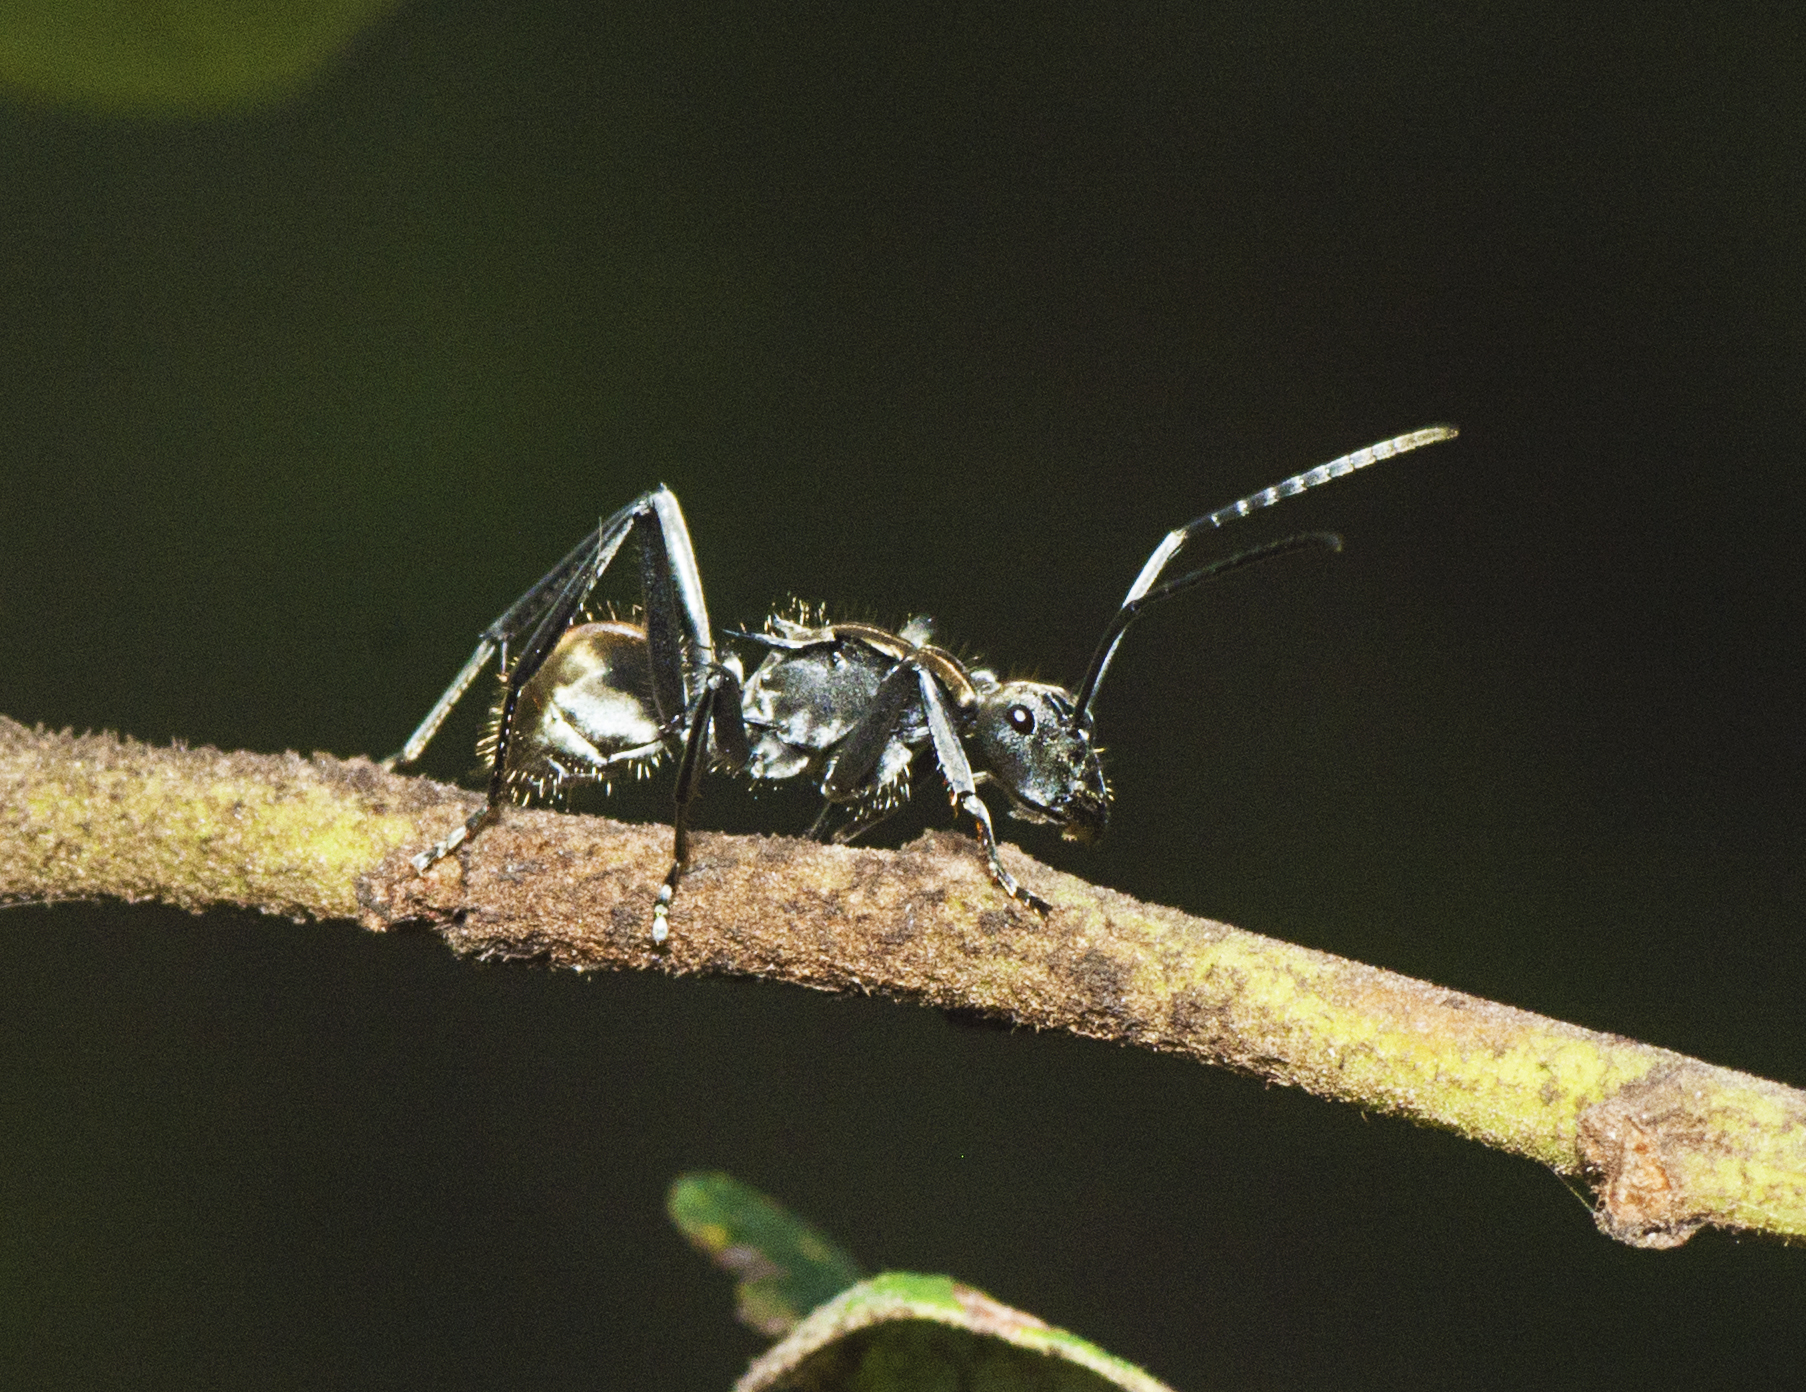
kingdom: Animalia
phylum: Arthropoda
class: Insecta
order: Hymenoptera
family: Formicidae
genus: Polyrhachis
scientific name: Polyrhachis ammon
